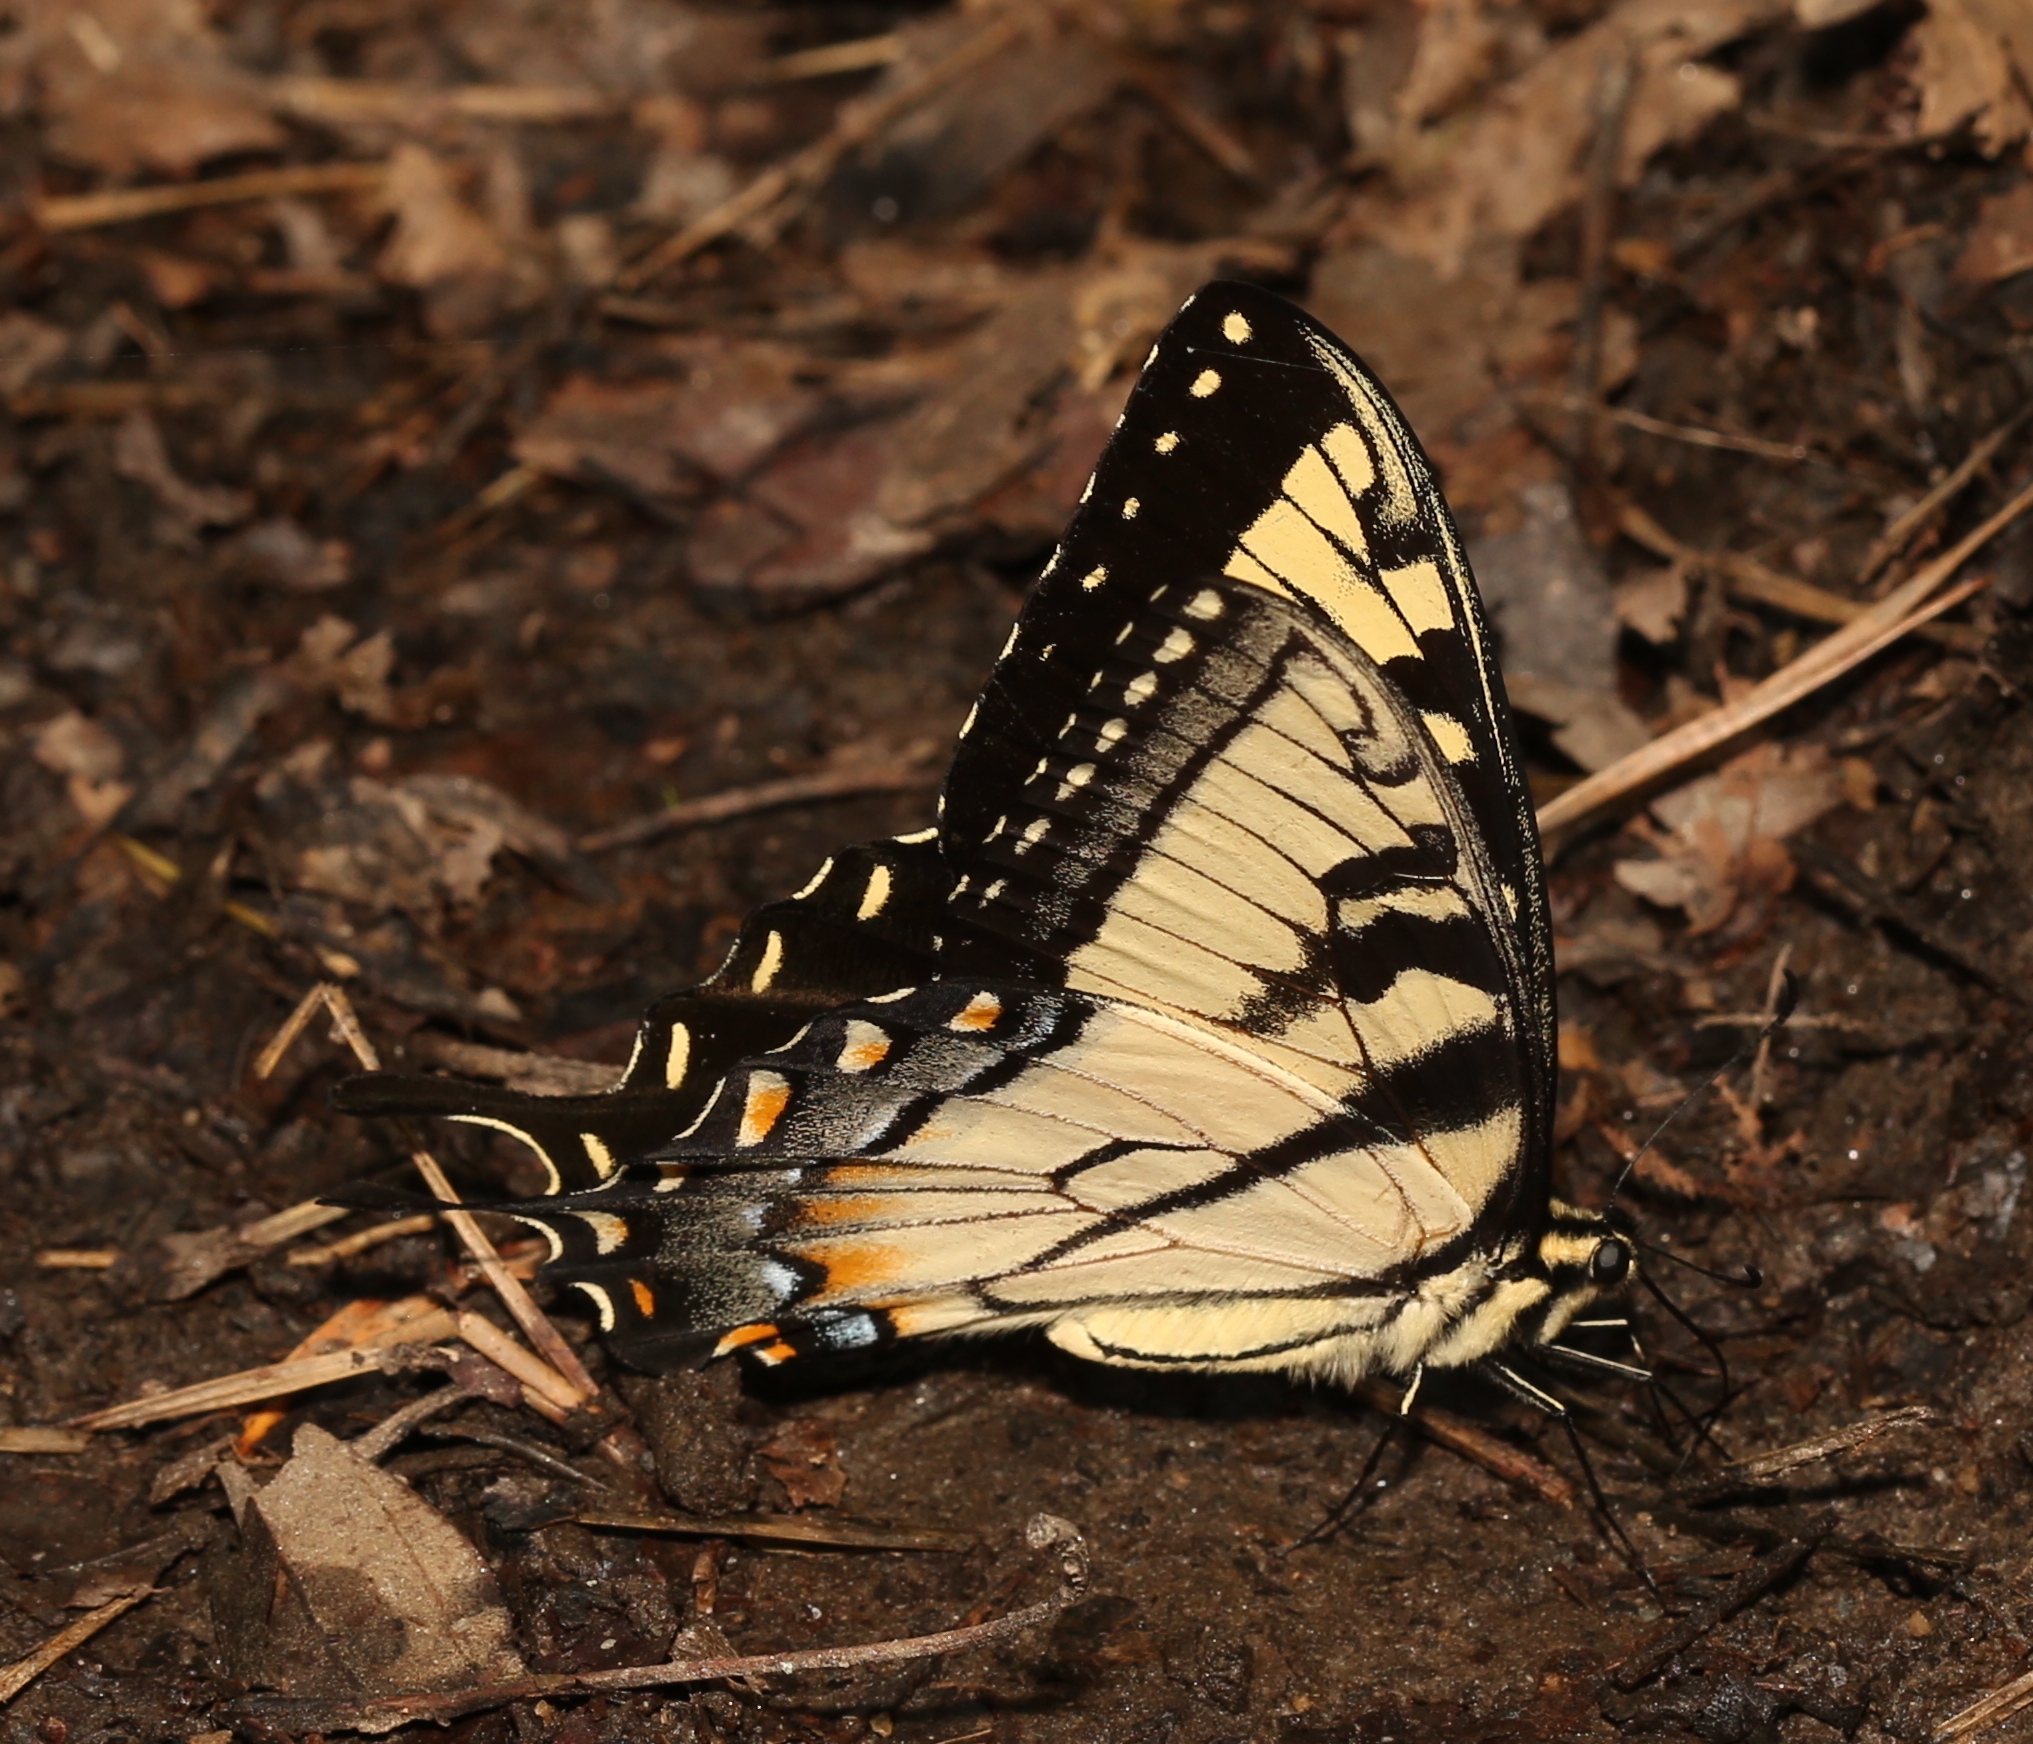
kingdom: Animalia
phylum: Arthropoda
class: Insecta
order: Lepidoptera
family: Papilionidae
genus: Papilio
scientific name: Papilio glaucus
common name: Tiger swallowtail
